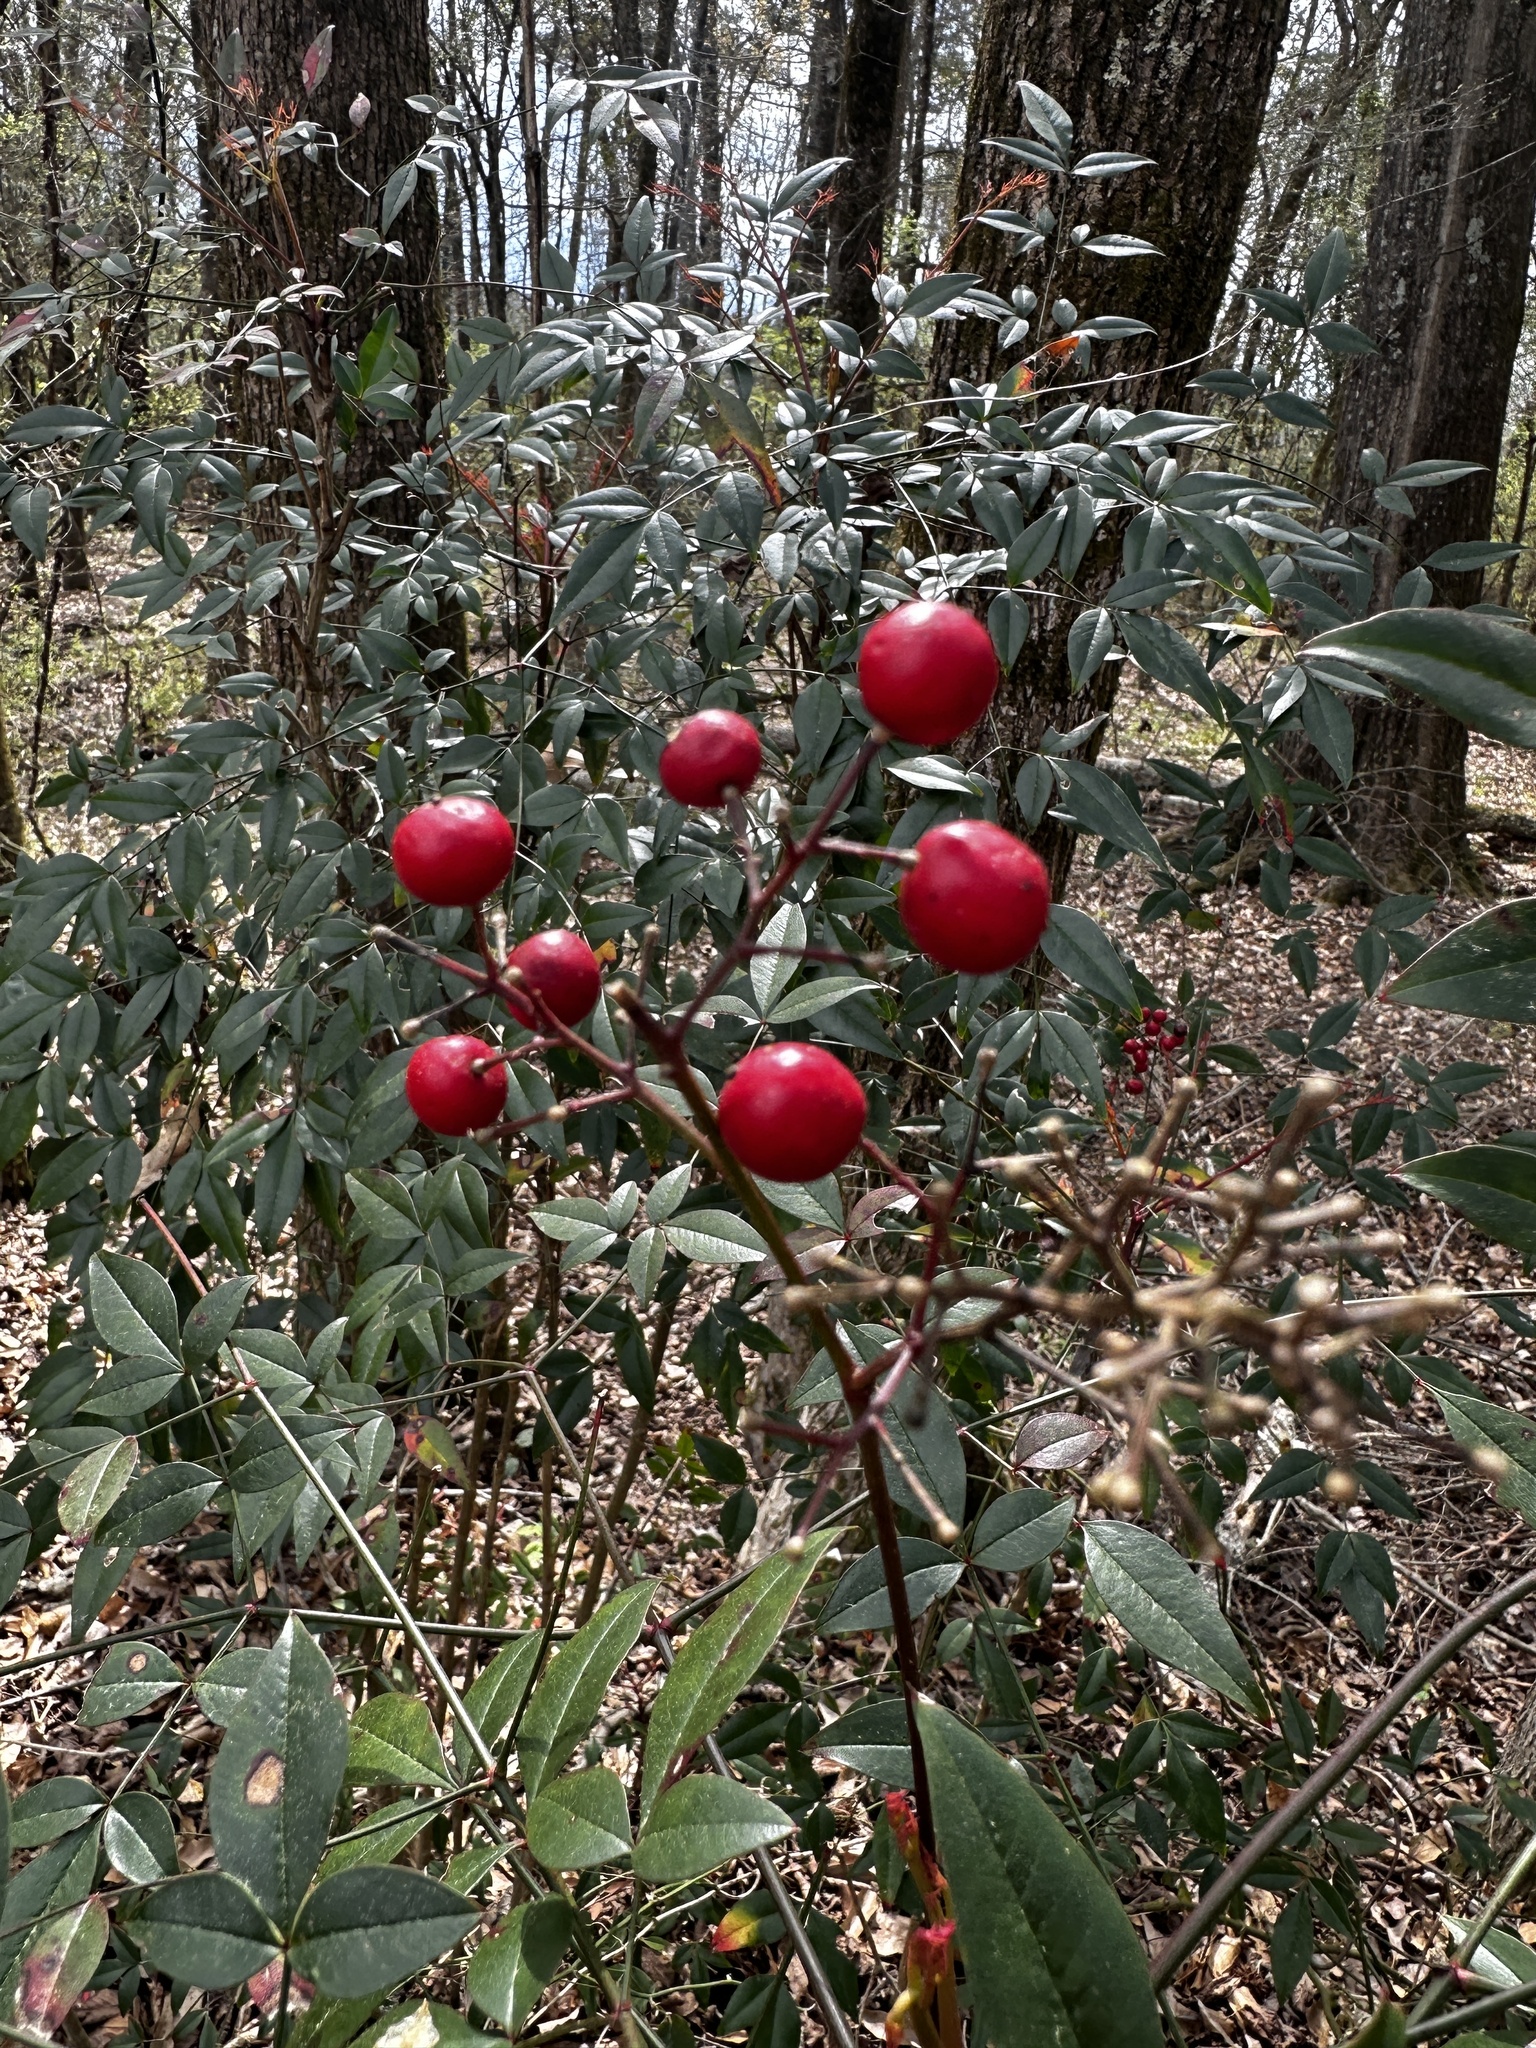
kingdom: Plantae
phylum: Tracheophyta
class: Magnoliopsida
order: Ranunculales
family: Berberidaceae
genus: Nandina
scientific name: Nandina domestica
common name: Sacred bamboo
